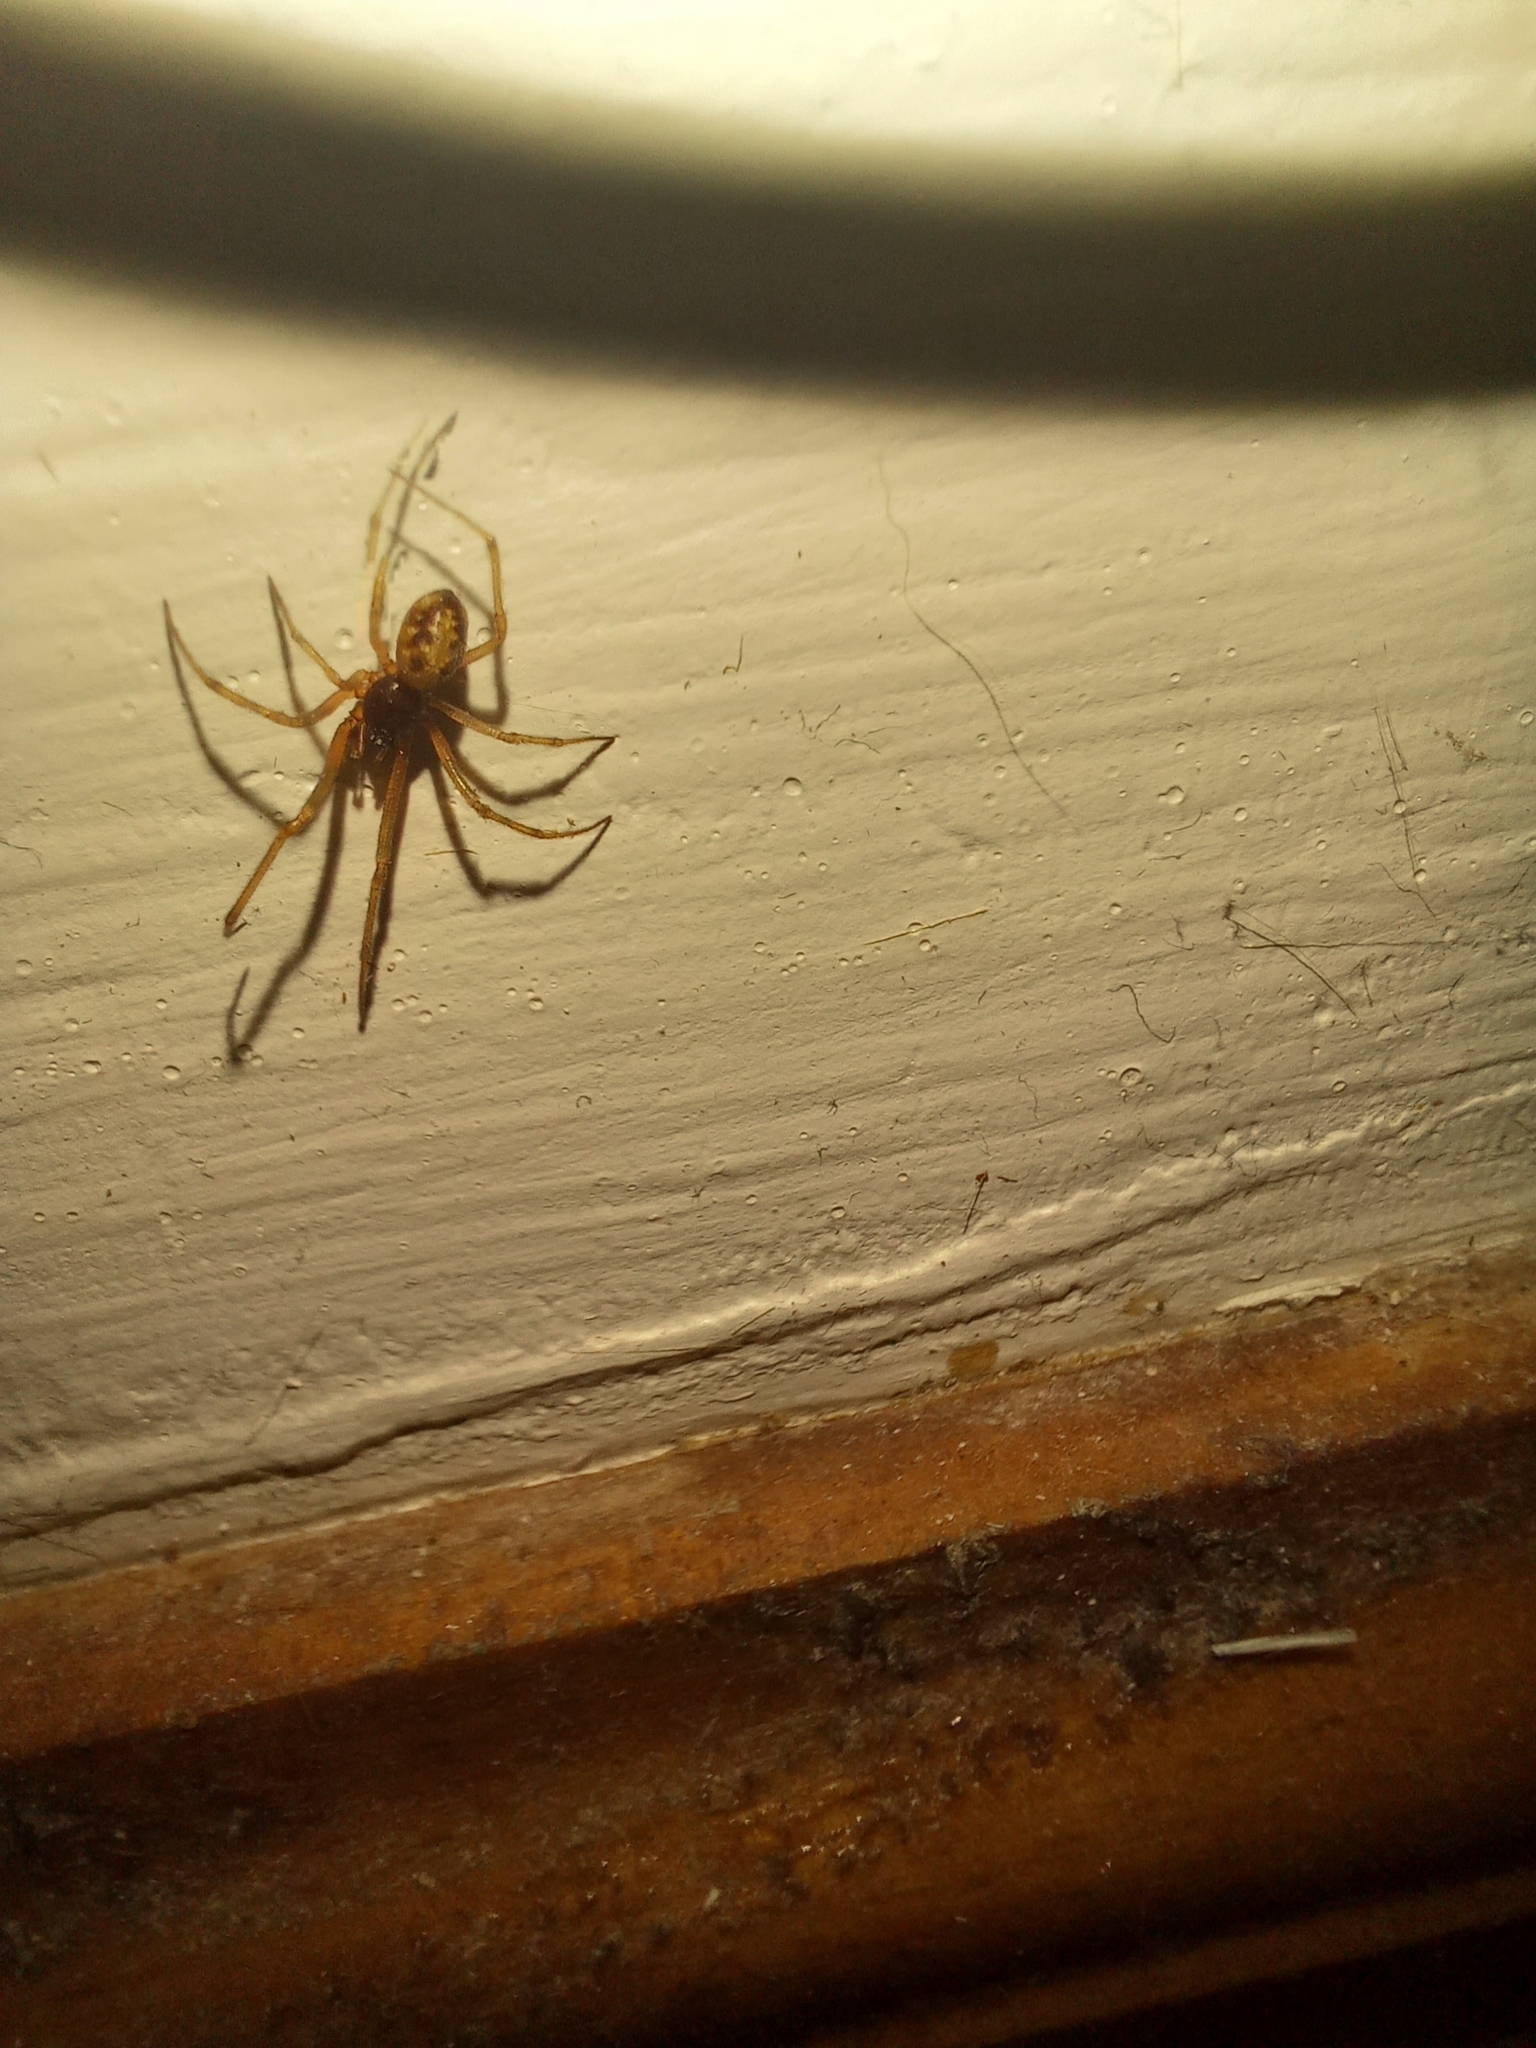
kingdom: Animalia
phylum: Arthropoda
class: Arachnida
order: Araneae
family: Theridiidae
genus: Steatoda
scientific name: Steatoda triangulosa
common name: Triangulate bud spider
